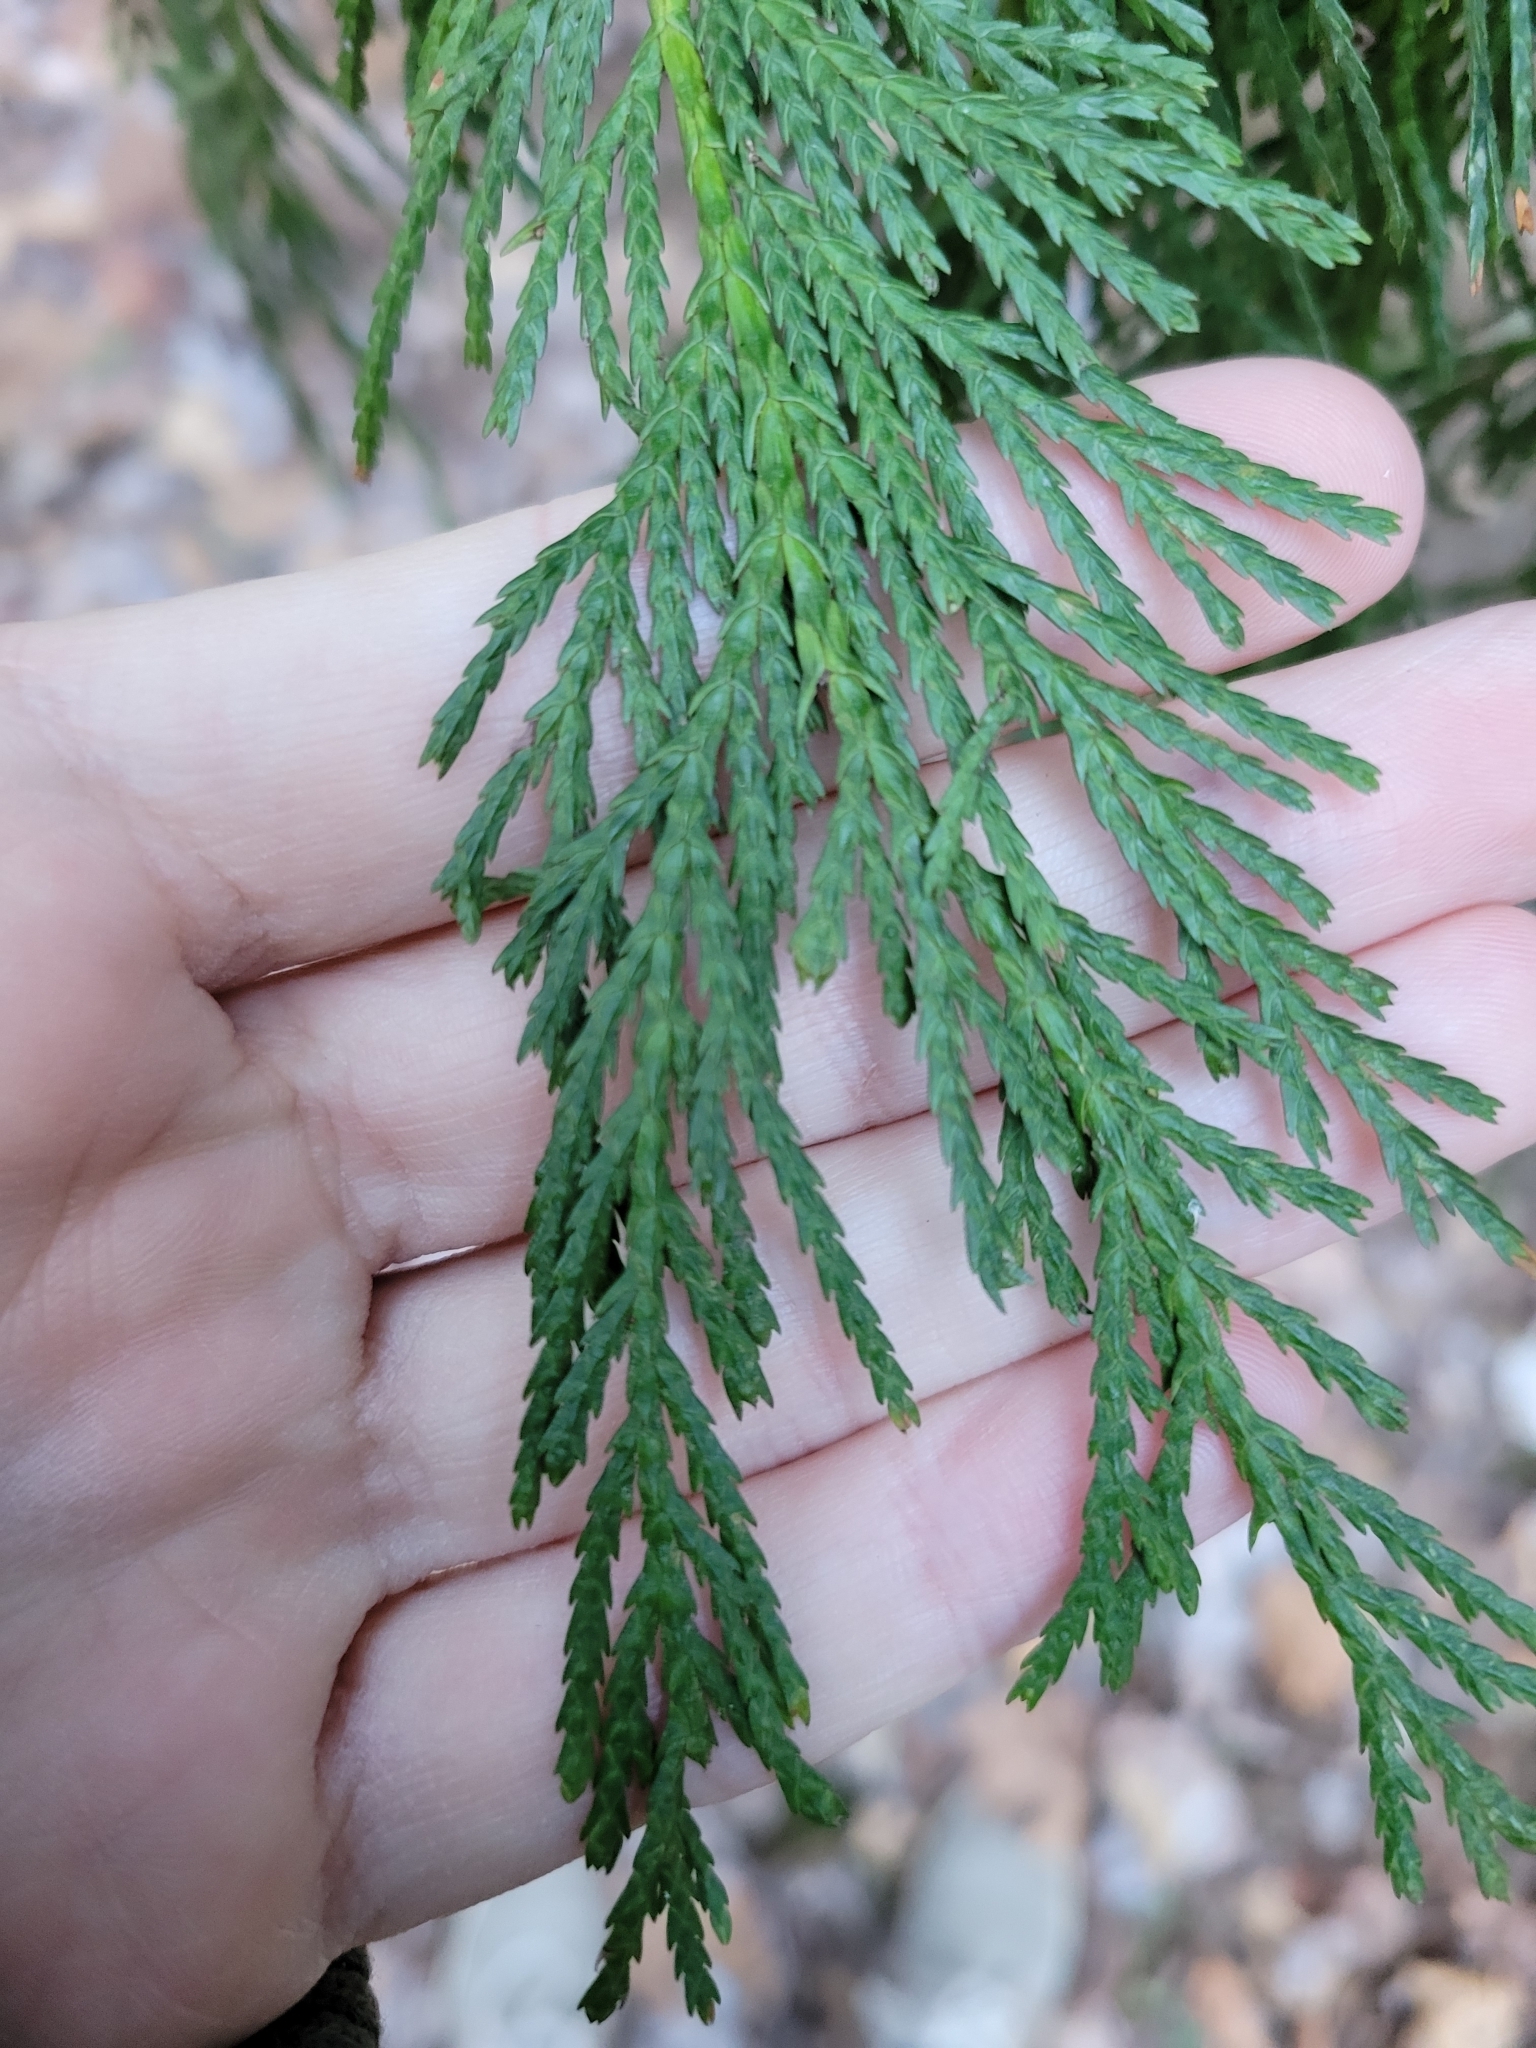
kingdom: Plantae
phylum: Tracheophyta
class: Pinopsida
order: Pinales
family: Cupressaceae
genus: Xanthocyparis
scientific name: Xanthocyparis nootkatensis
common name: Nootka cypress
